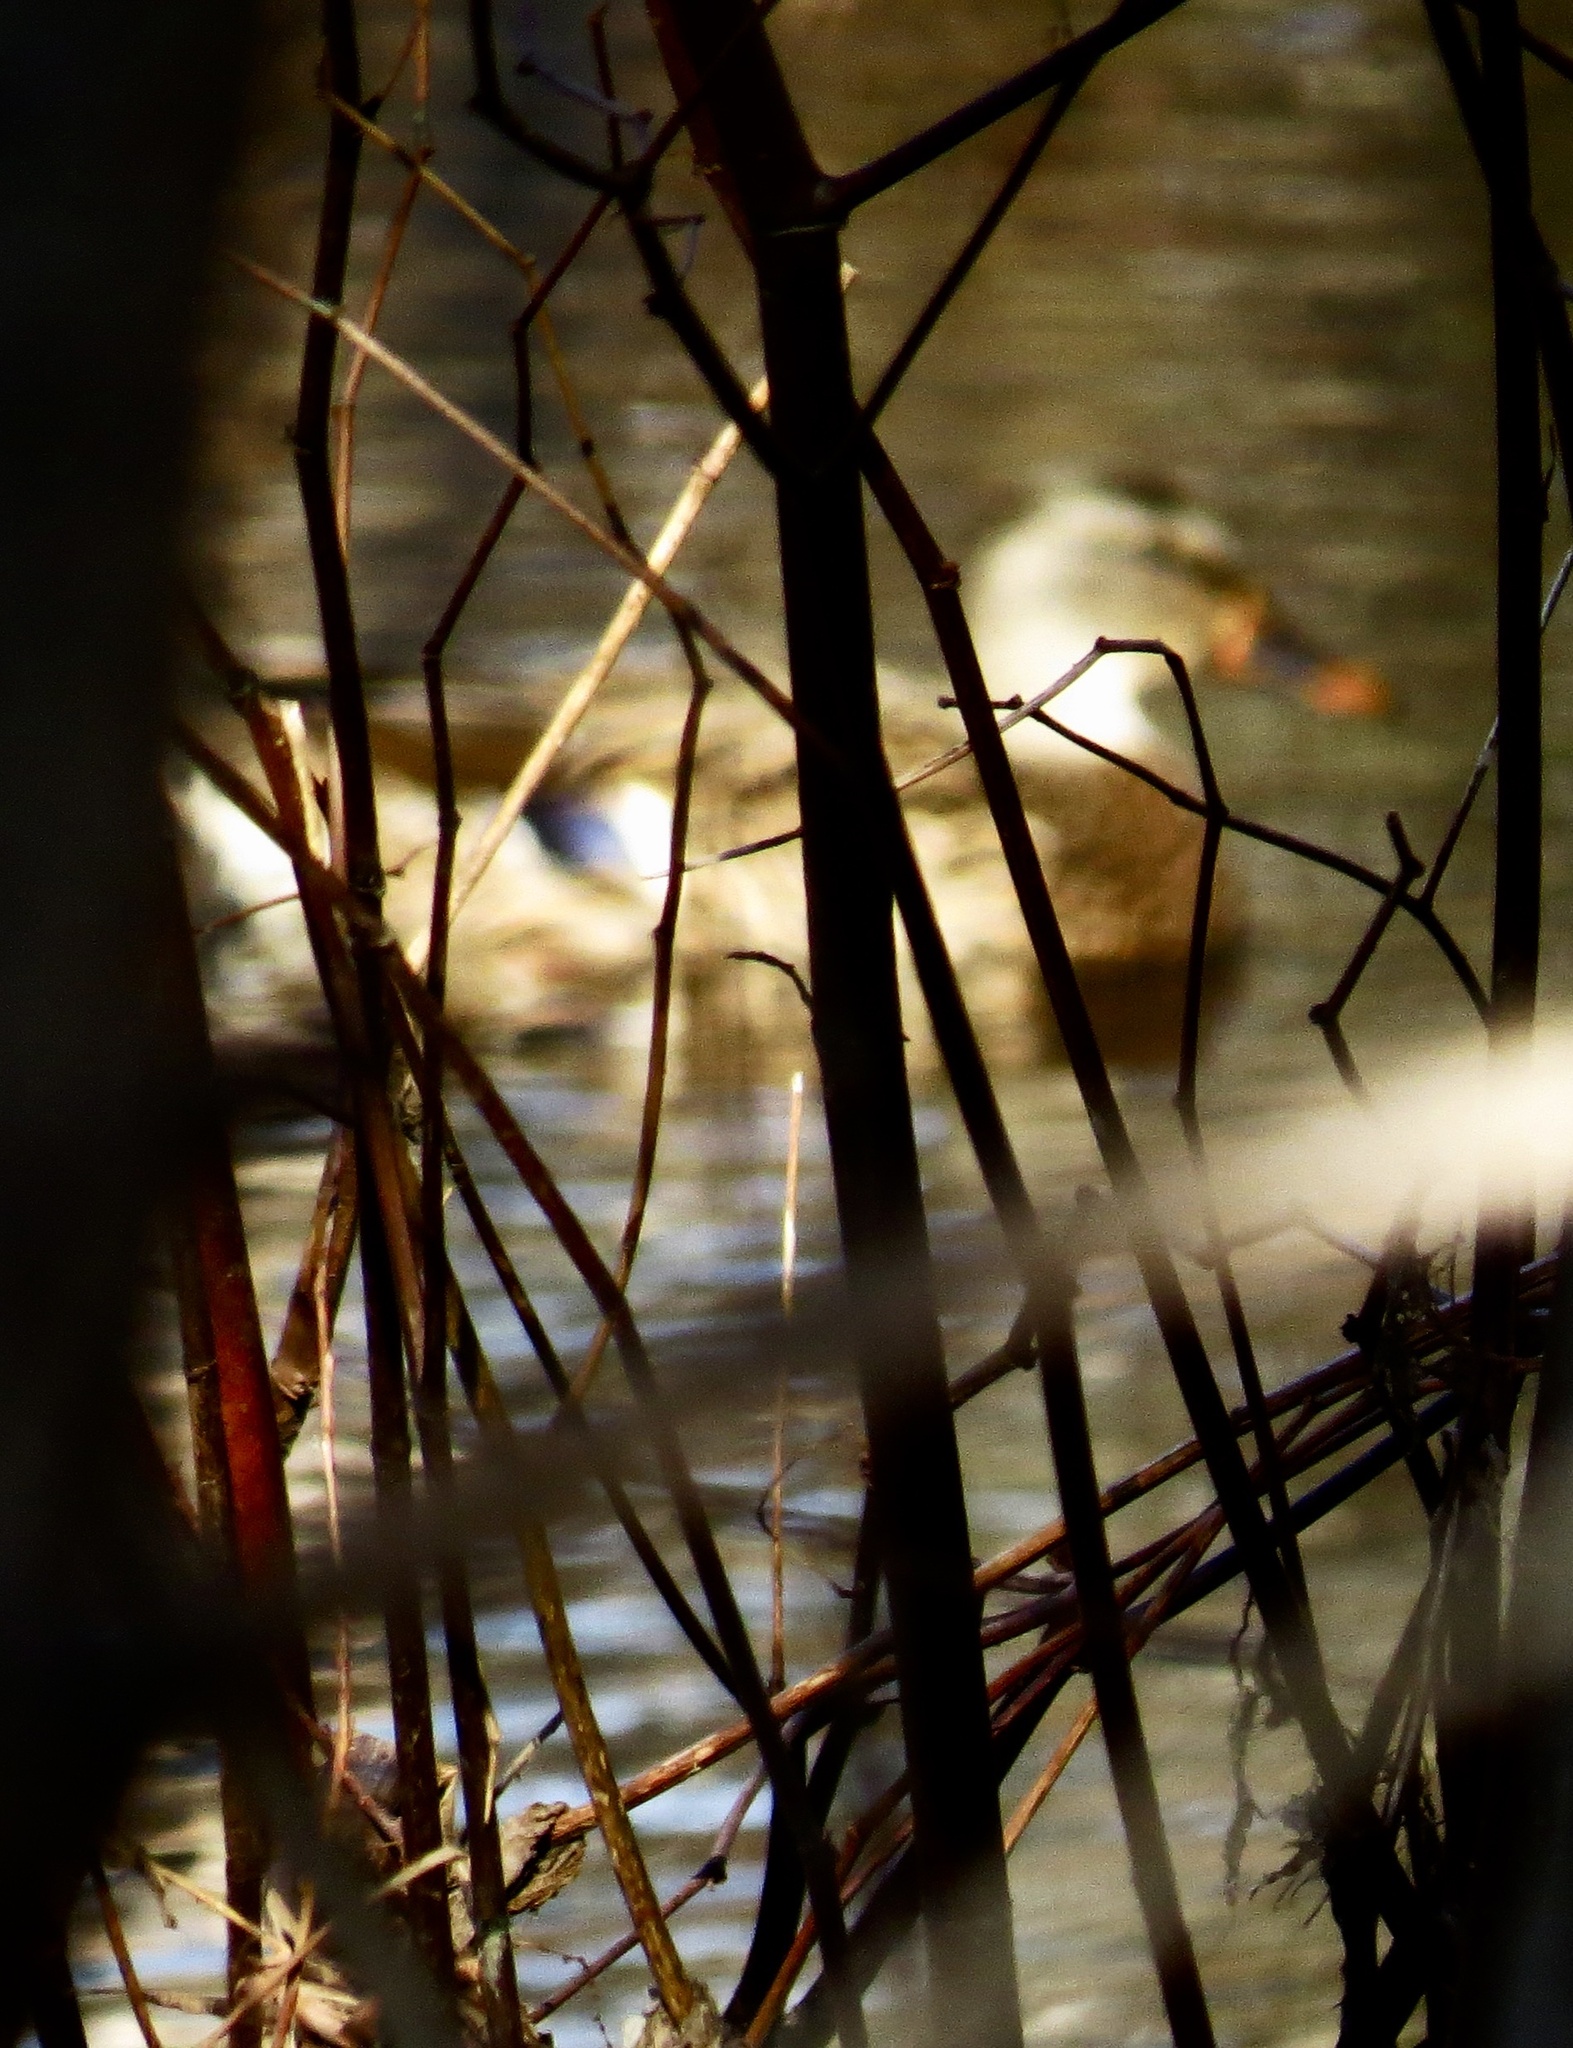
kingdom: Animalia
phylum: Chordata
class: Aves
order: Anseriformes
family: Anatidae
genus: Anas
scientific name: Anas platyrhynchos
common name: Mallard
